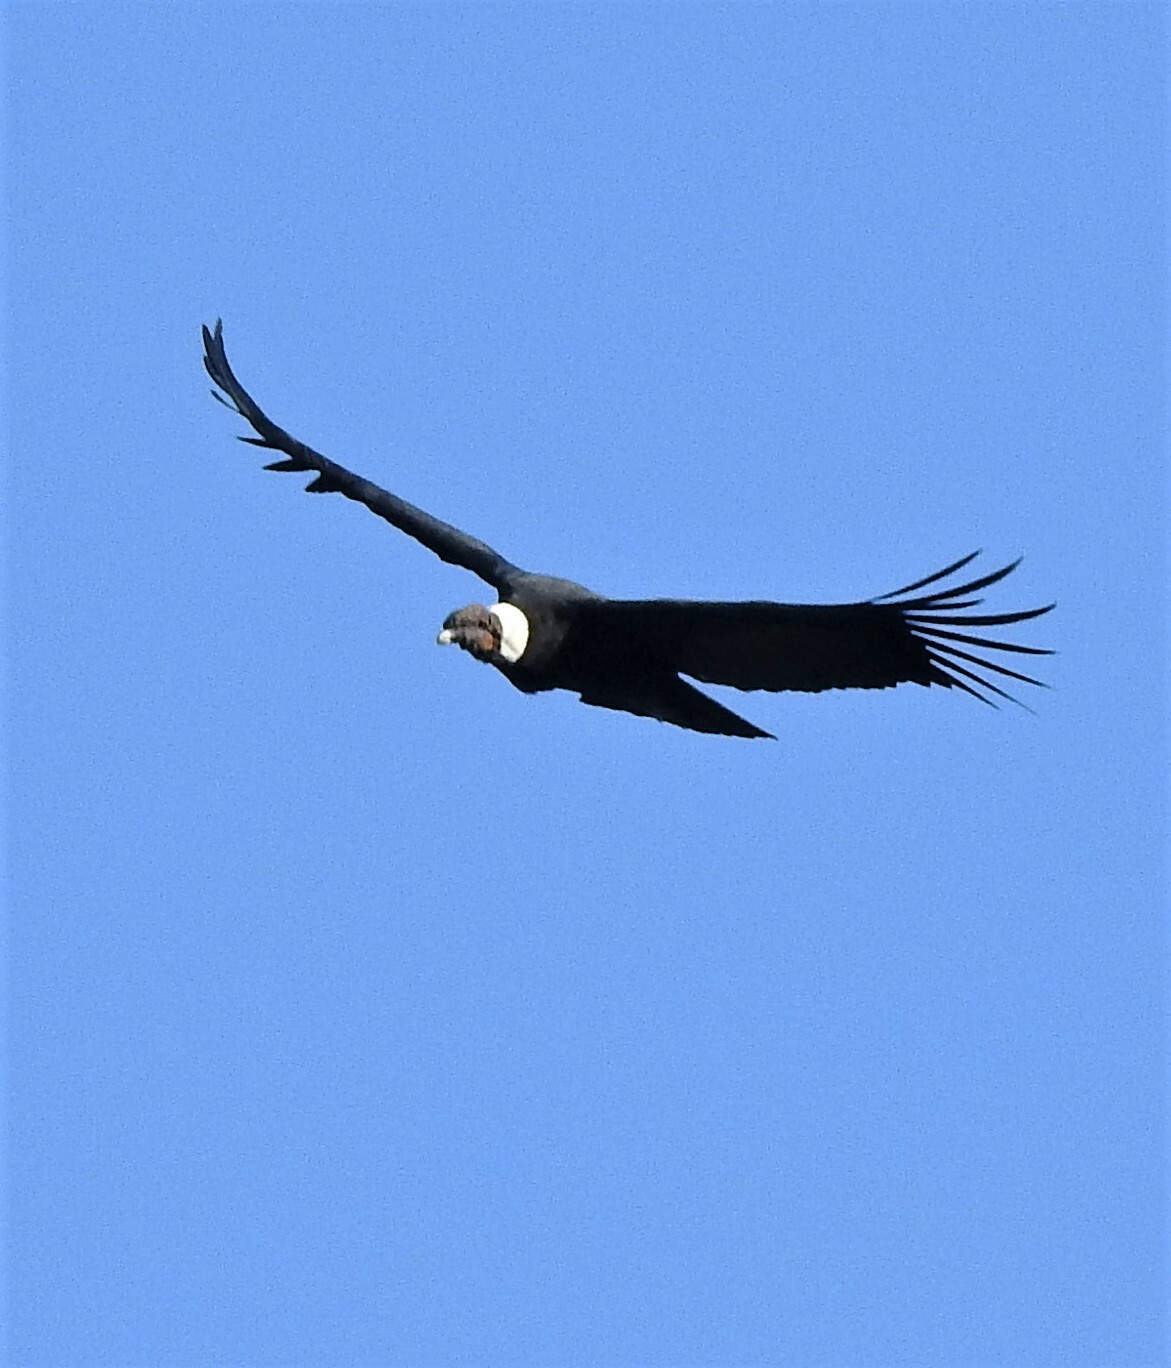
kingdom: Animalia
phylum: Chordata
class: Aves
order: Accipitriformes
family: Cathartidae
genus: Vultur
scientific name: Vultur gryphus
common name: Andean condor
